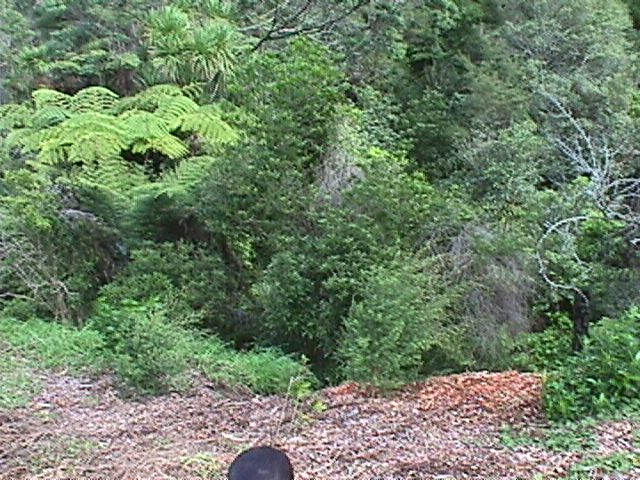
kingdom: Plantae
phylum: Tracheophyta
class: Polypodiopsida
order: Cyatheales
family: Cyatheaceae
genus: Sphaeropteris
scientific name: Sphaeropteris medullaris
